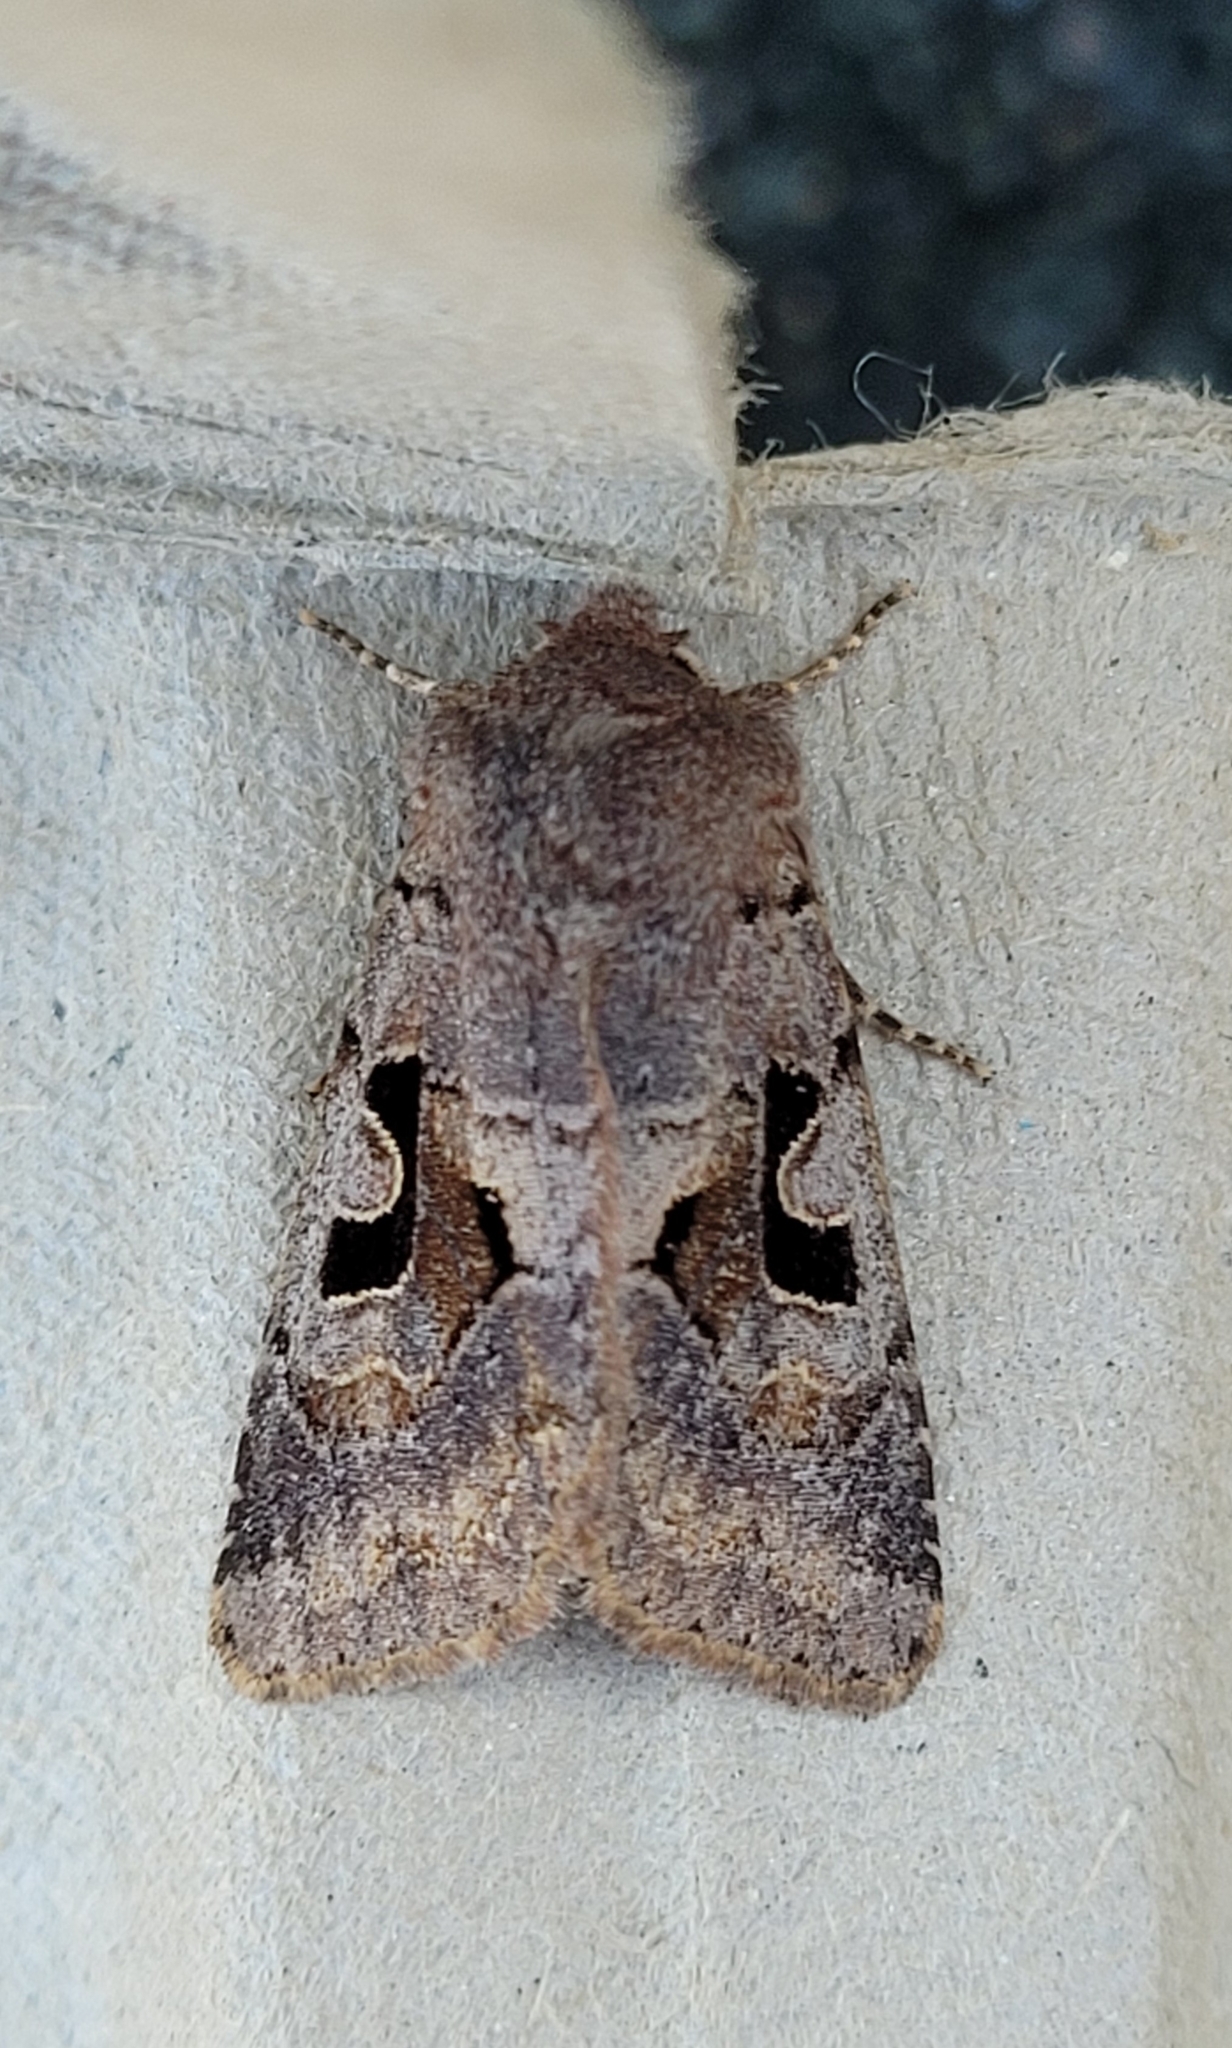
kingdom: Animalia
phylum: Arthropoda
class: Insecta
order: Lepidoptera
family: Noctuidae
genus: Orthosia
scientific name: Orthosia gothica
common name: Hebrew character
